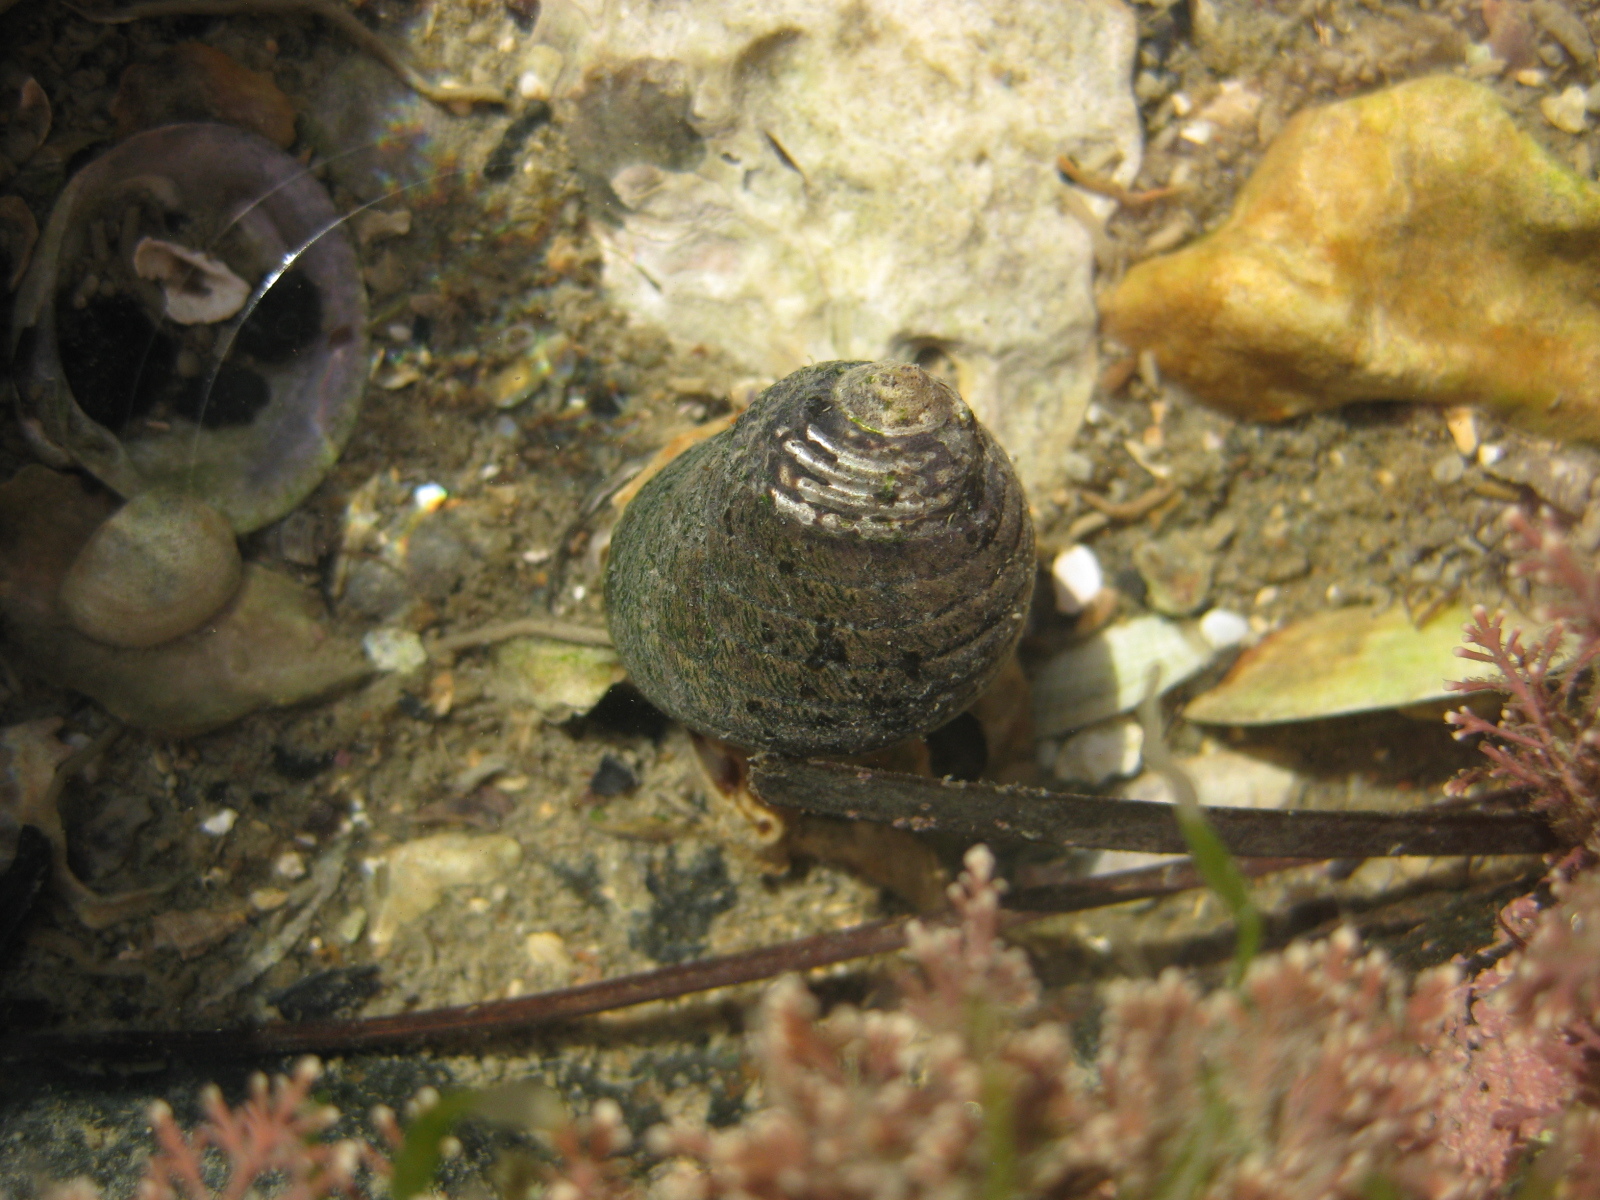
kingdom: Animalia
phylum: Mollusca
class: Gastropoda
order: Trochida
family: Trochidae
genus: Diloma
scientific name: Diloma aethiops
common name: Scorched monodont
